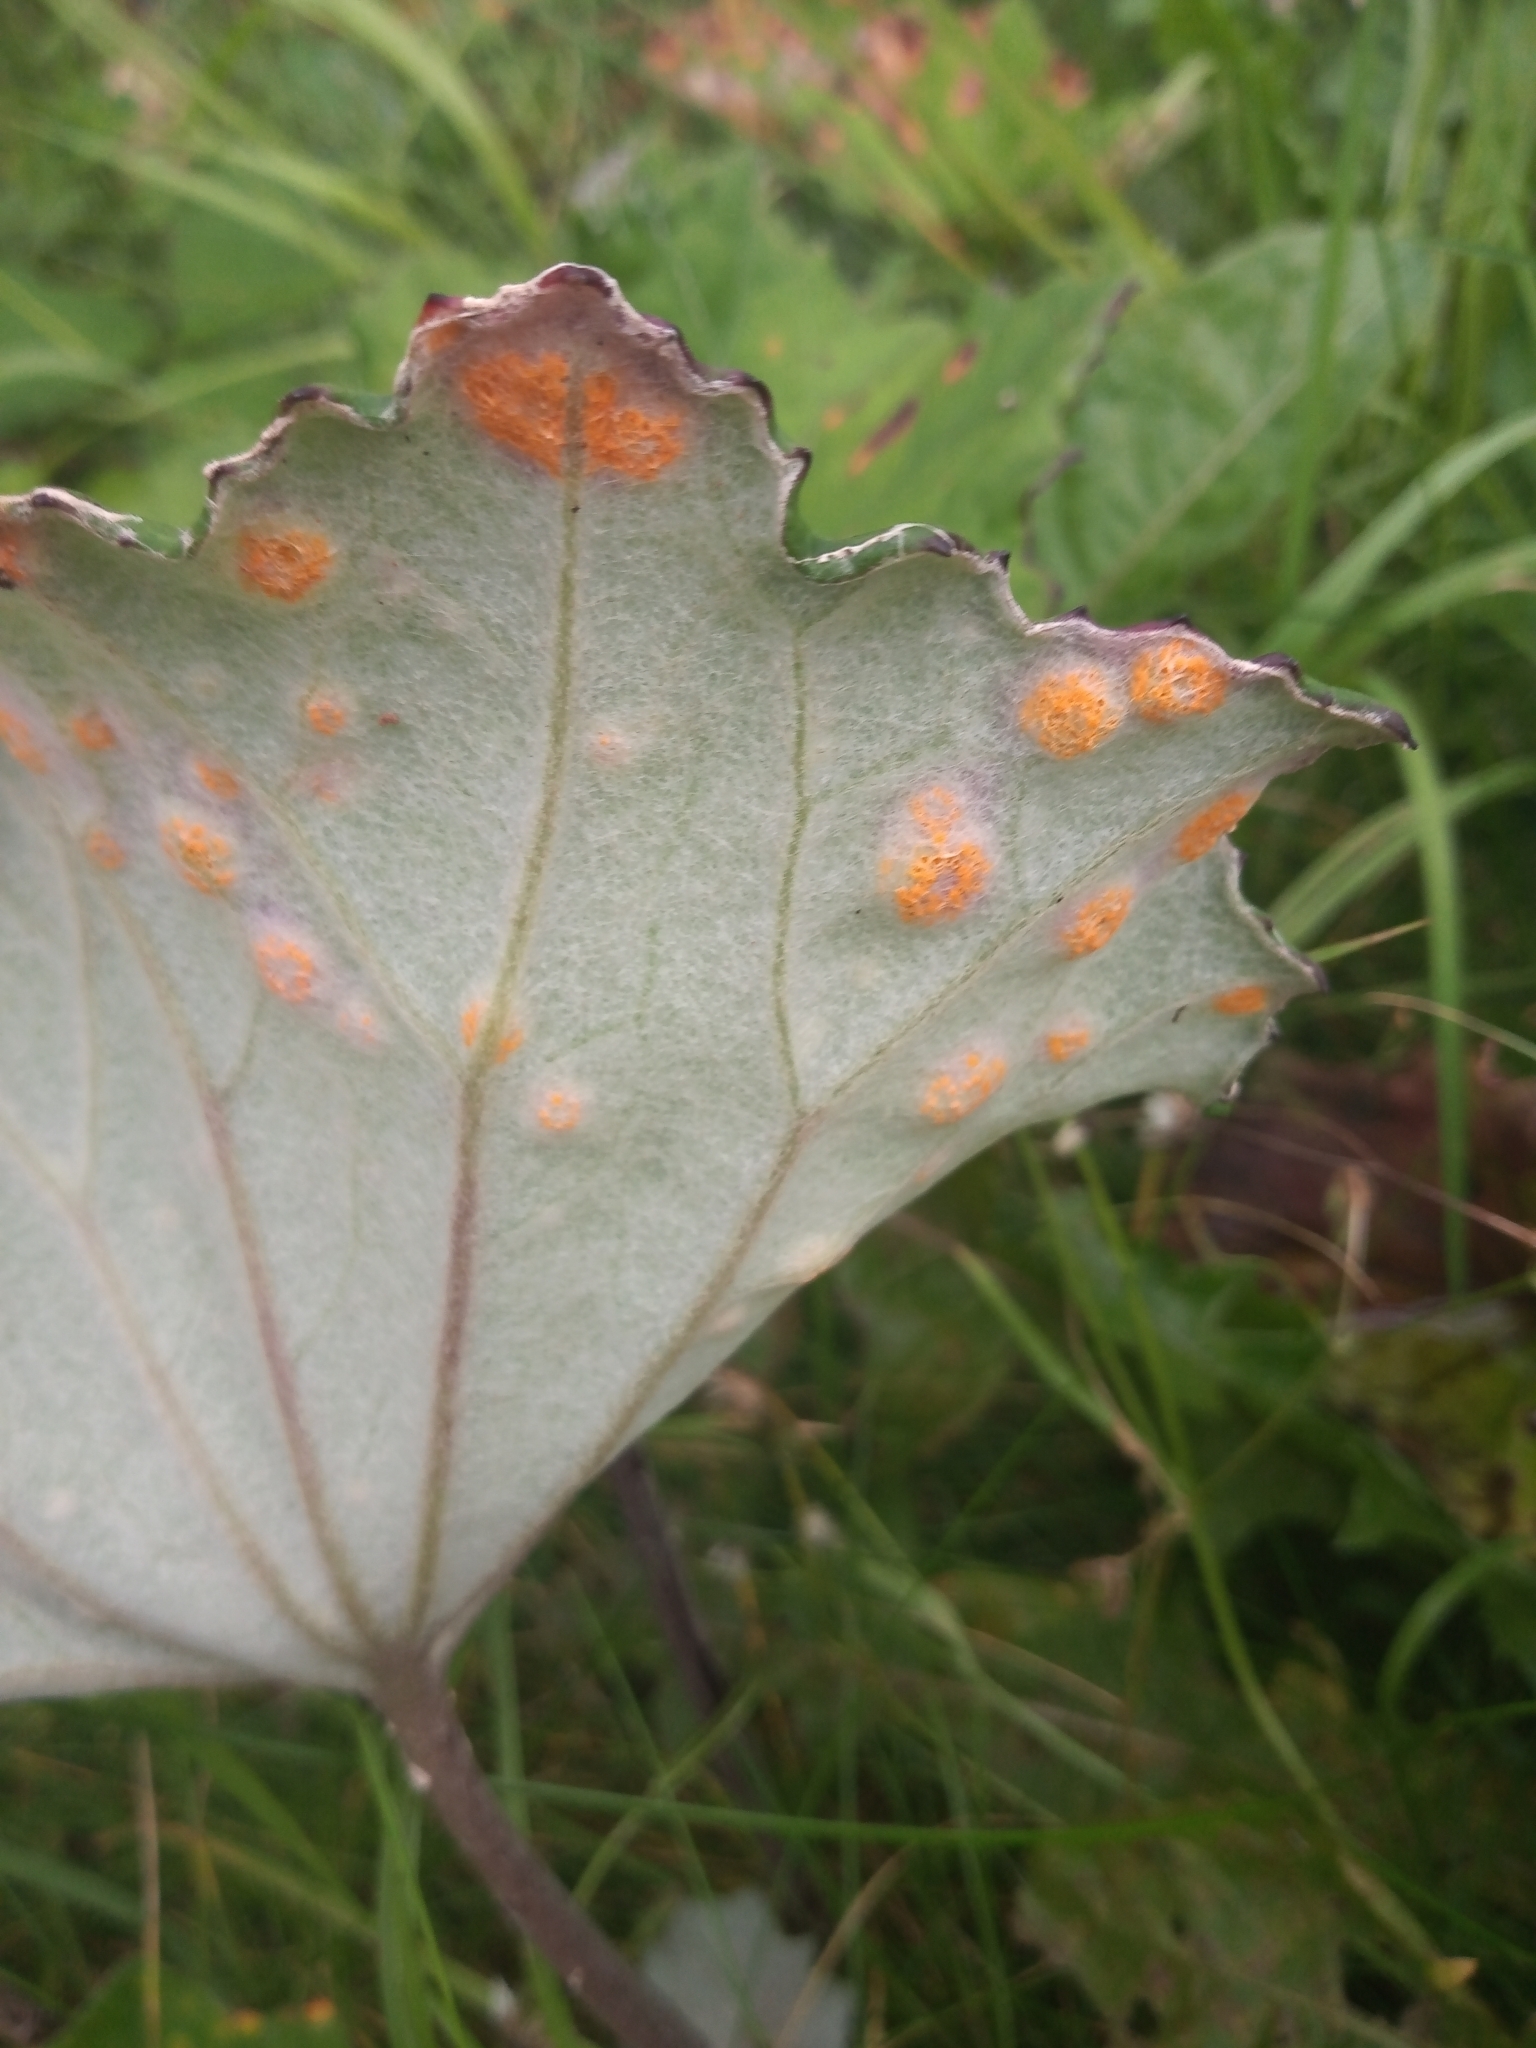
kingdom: Plantae
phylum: Tracheophyta
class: Magnoliopsida
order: Asterales
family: Asteraceae
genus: Tussilago
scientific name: Tussilago farfara
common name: Coltsfoot
